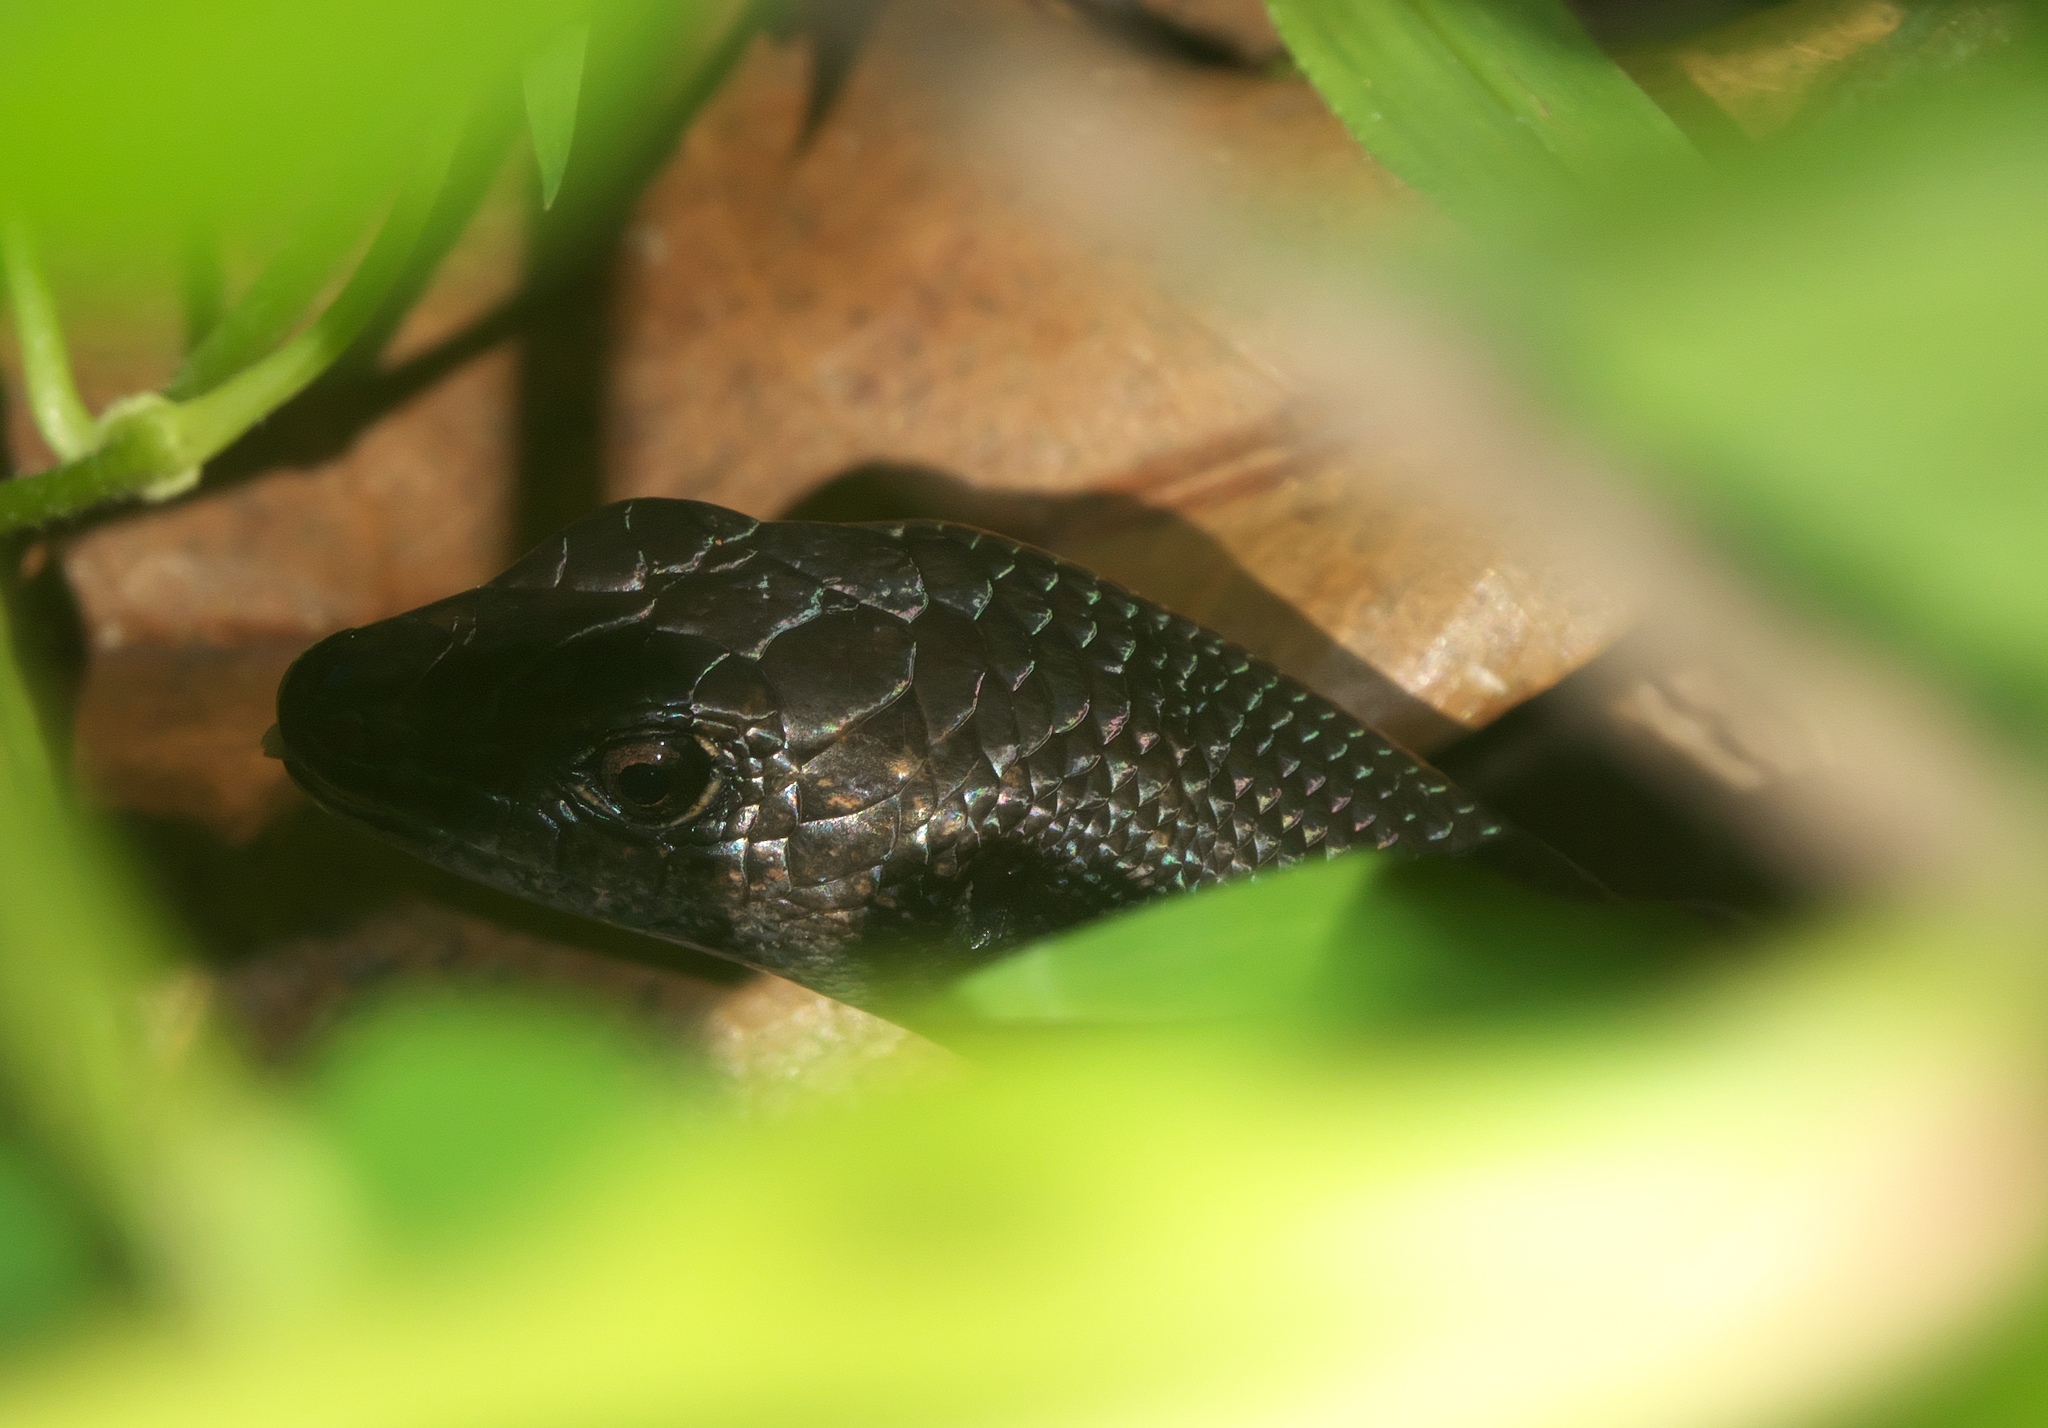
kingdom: Animalia
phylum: Chordata
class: Squamata
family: Scincidae
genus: Emoia
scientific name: Emoia nigra
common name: Black emo skink
